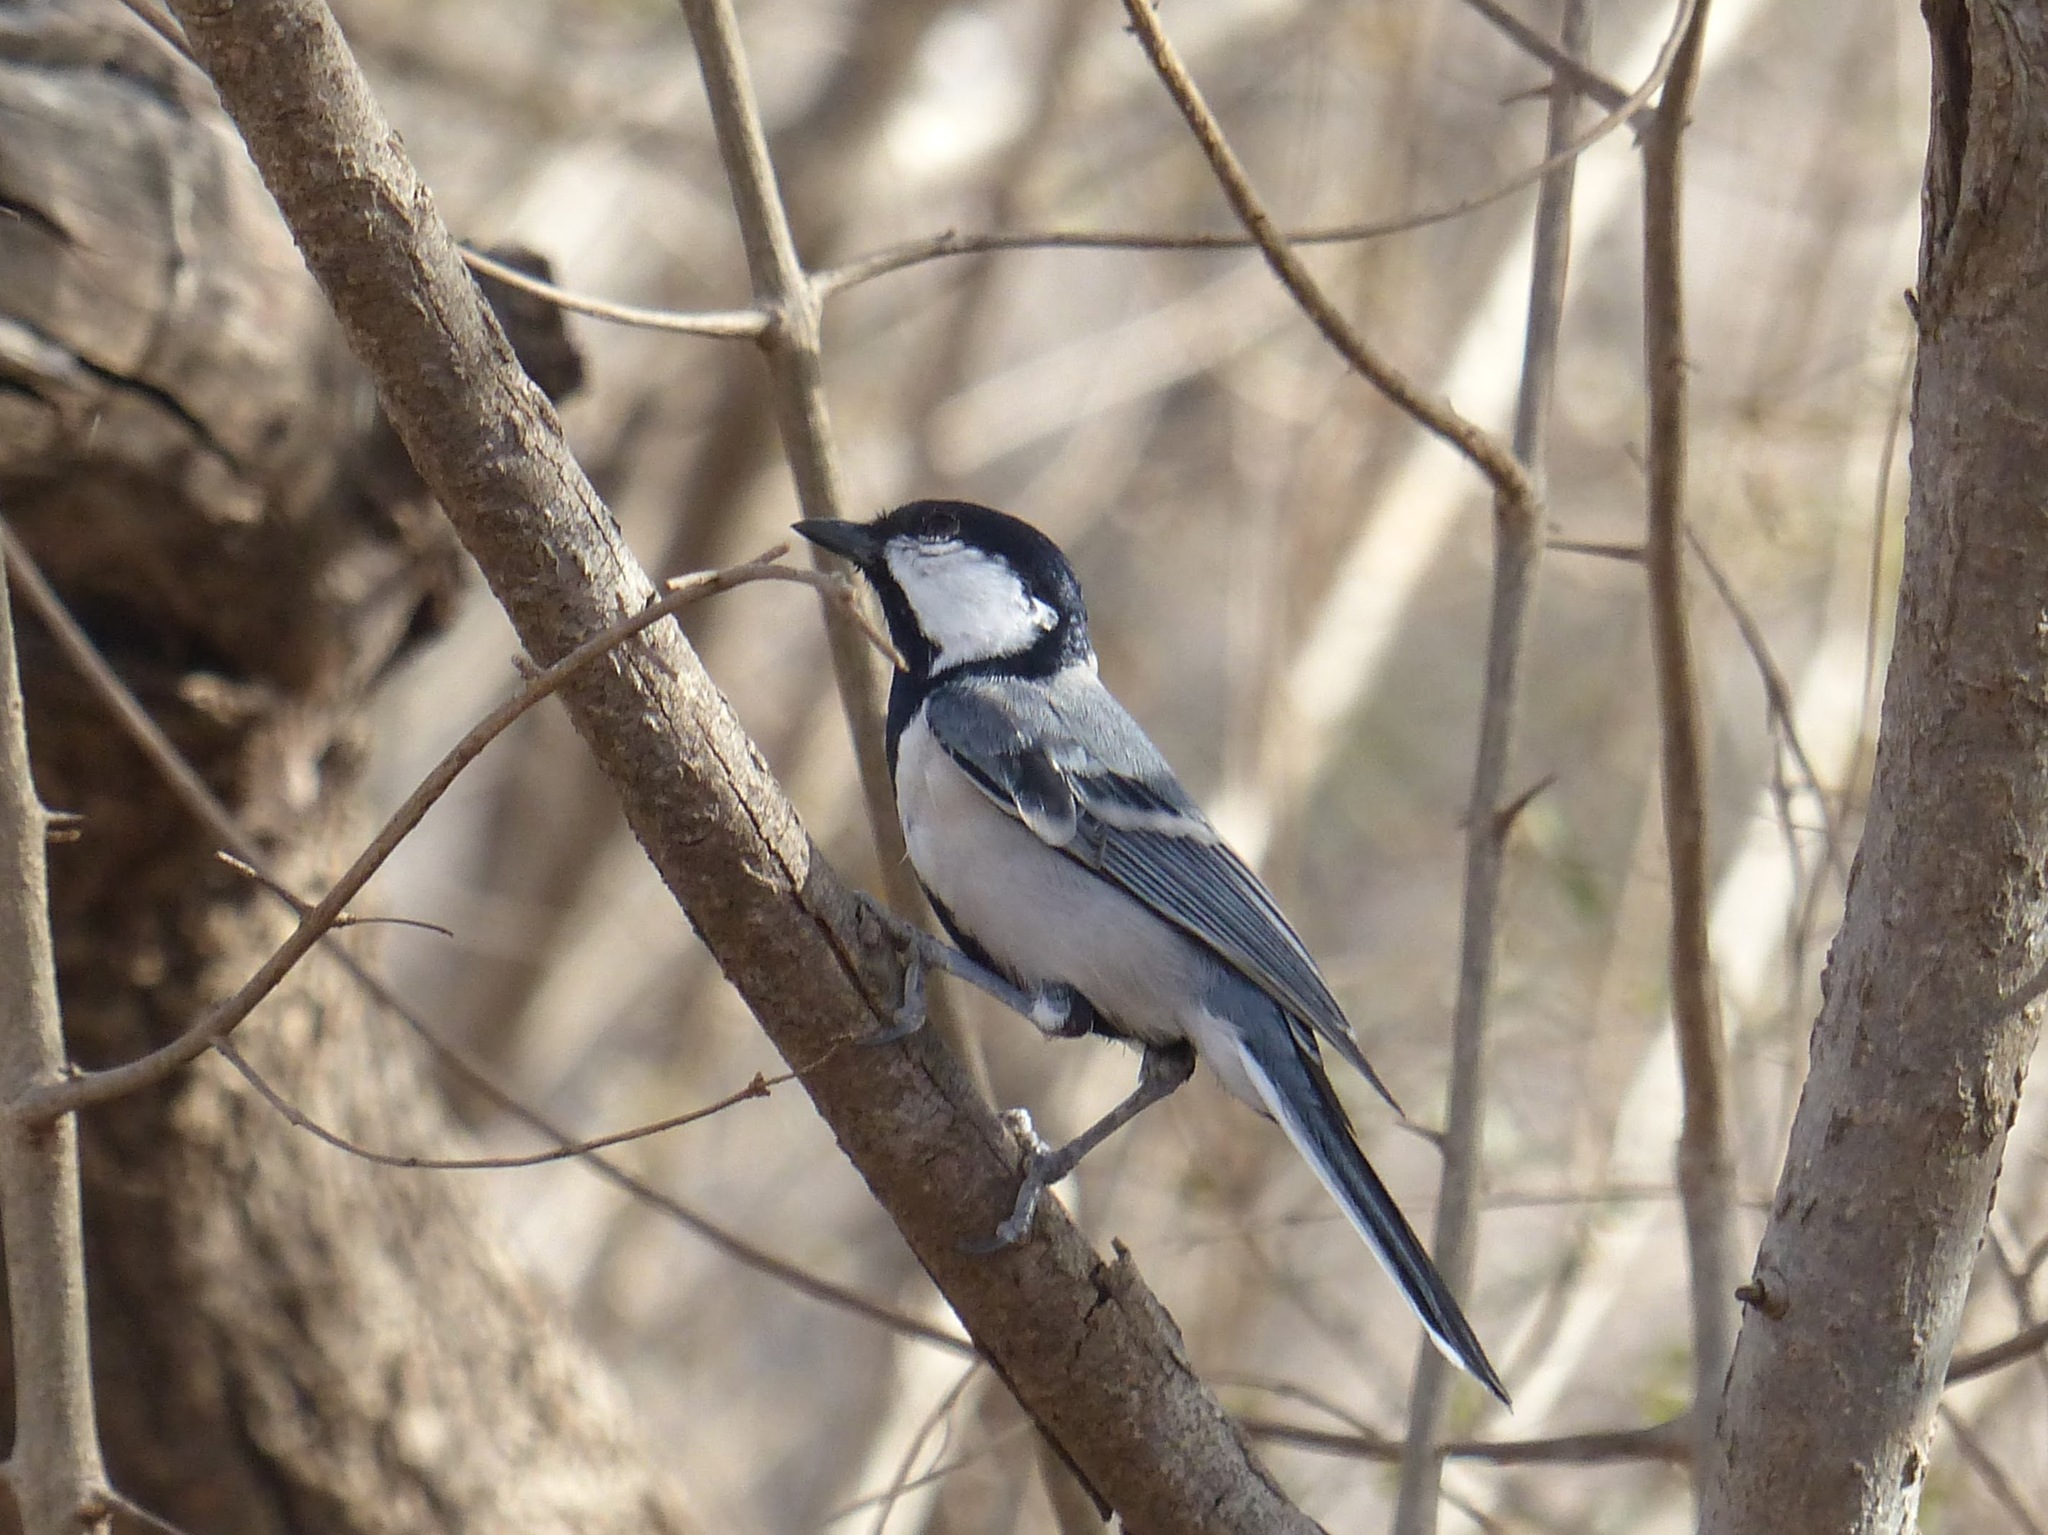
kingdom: Animalia
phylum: Chordata
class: Aves
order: Passeriformes
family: Paridae
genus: Parus
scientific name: Parus cinereus
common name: Cinereous tit
